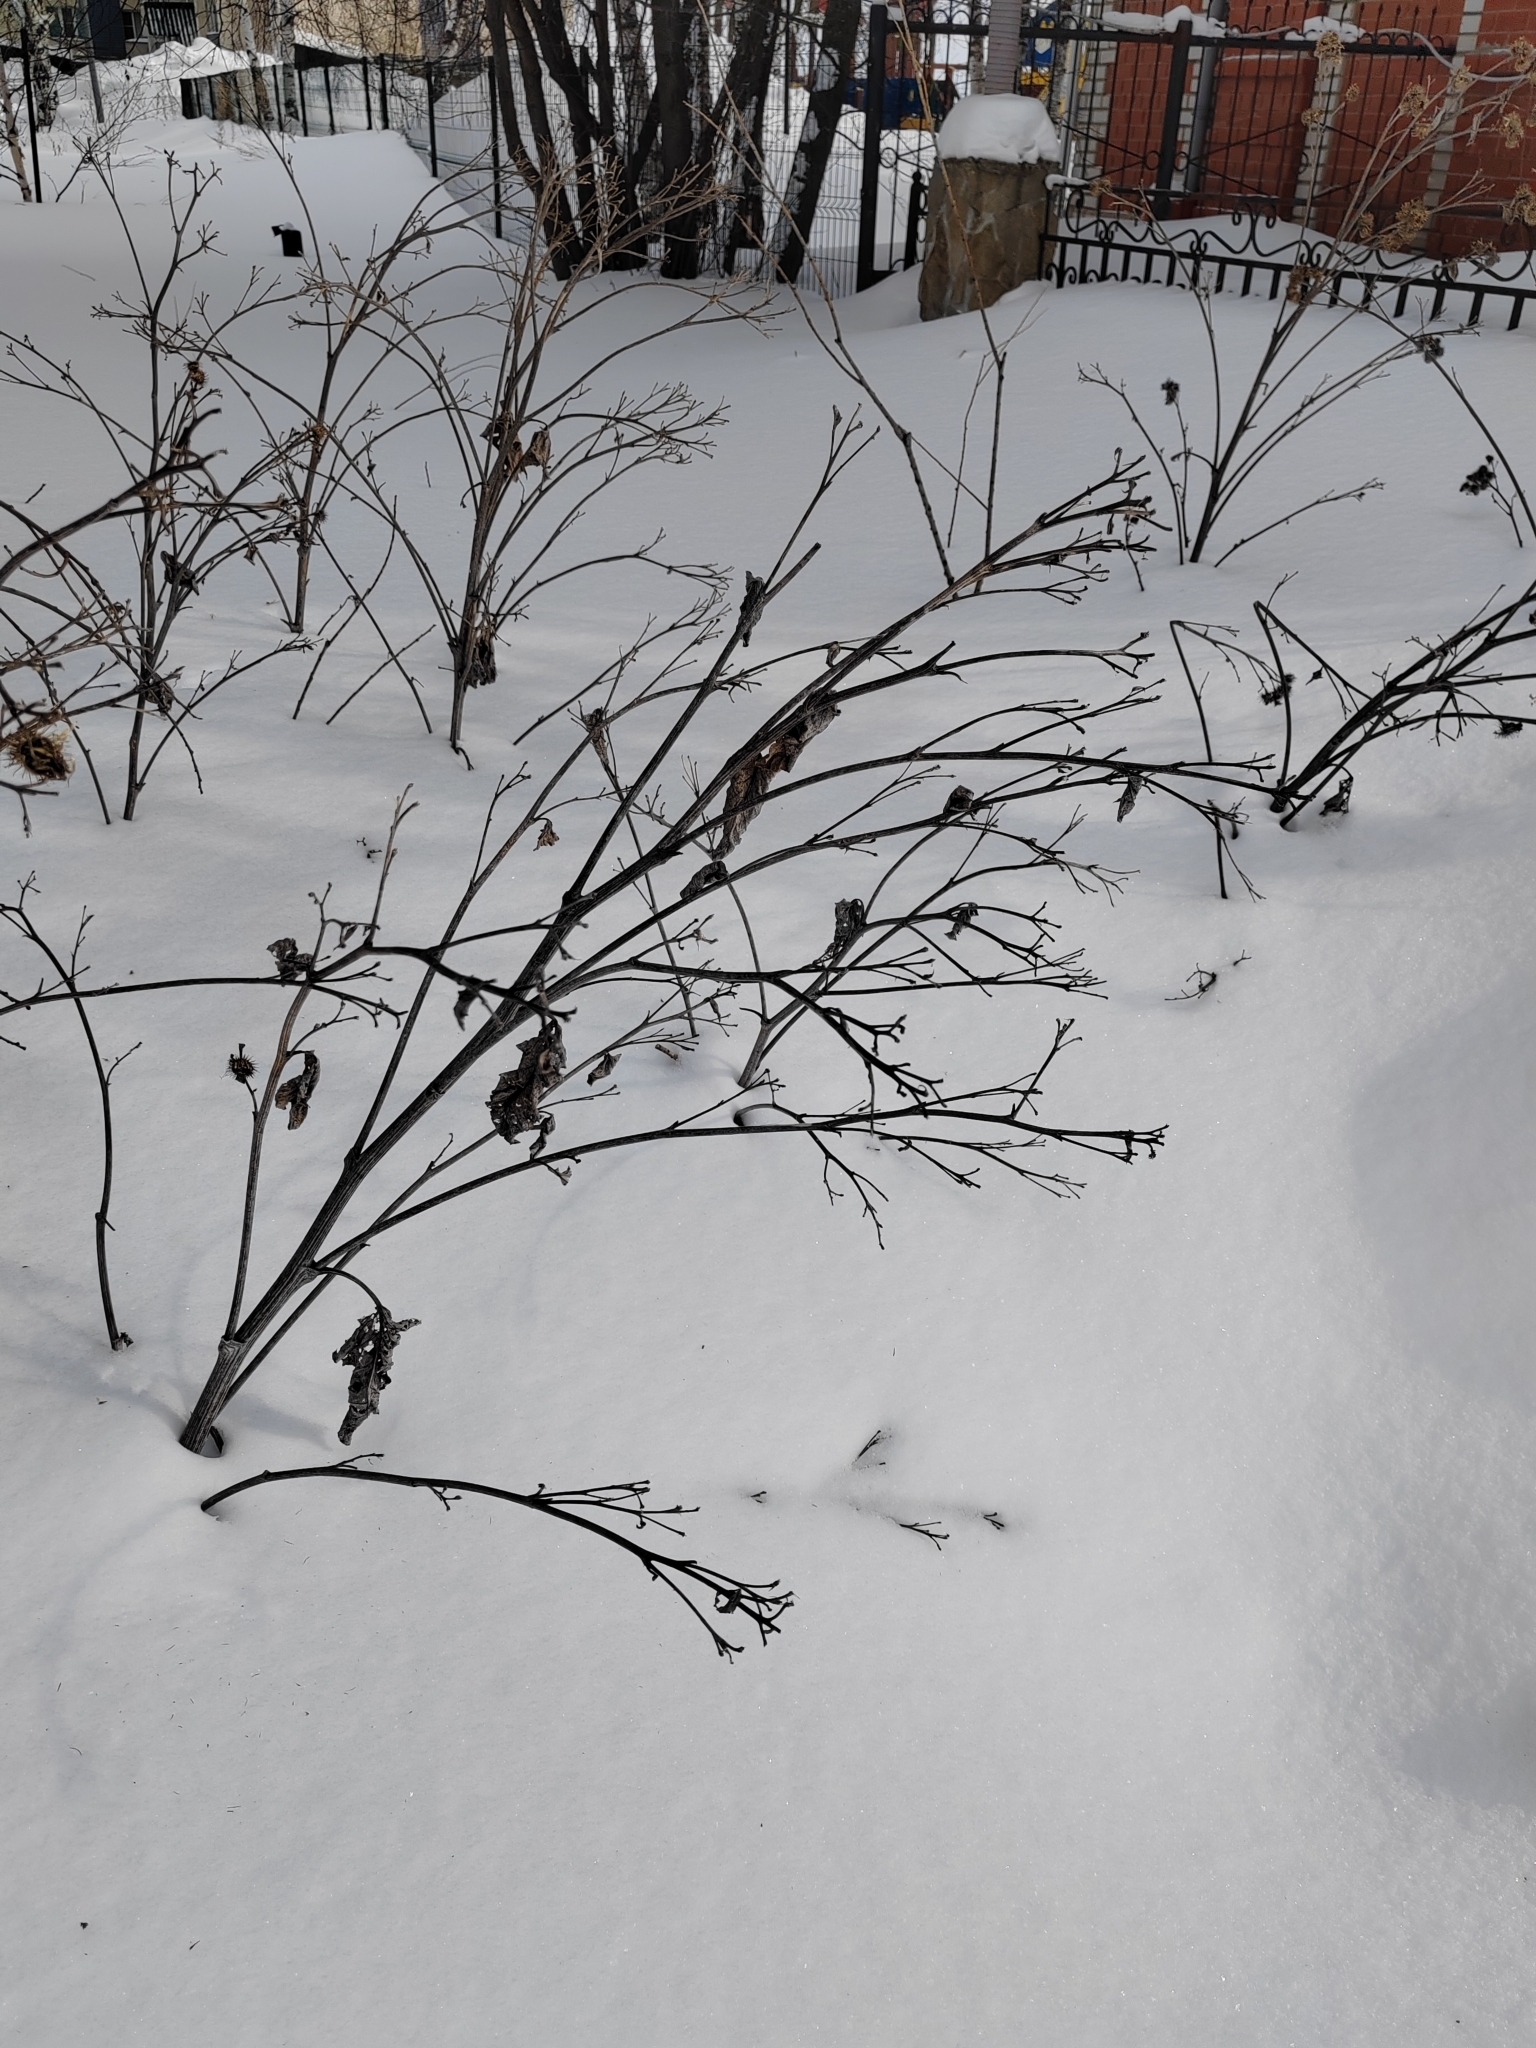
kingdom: Plantae
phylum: Tracheophyta
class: Magnoliopsida
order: Asterales
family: Asteraceae
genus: Arctium
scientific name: Arctium tomentosum
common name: Woolly burdock
